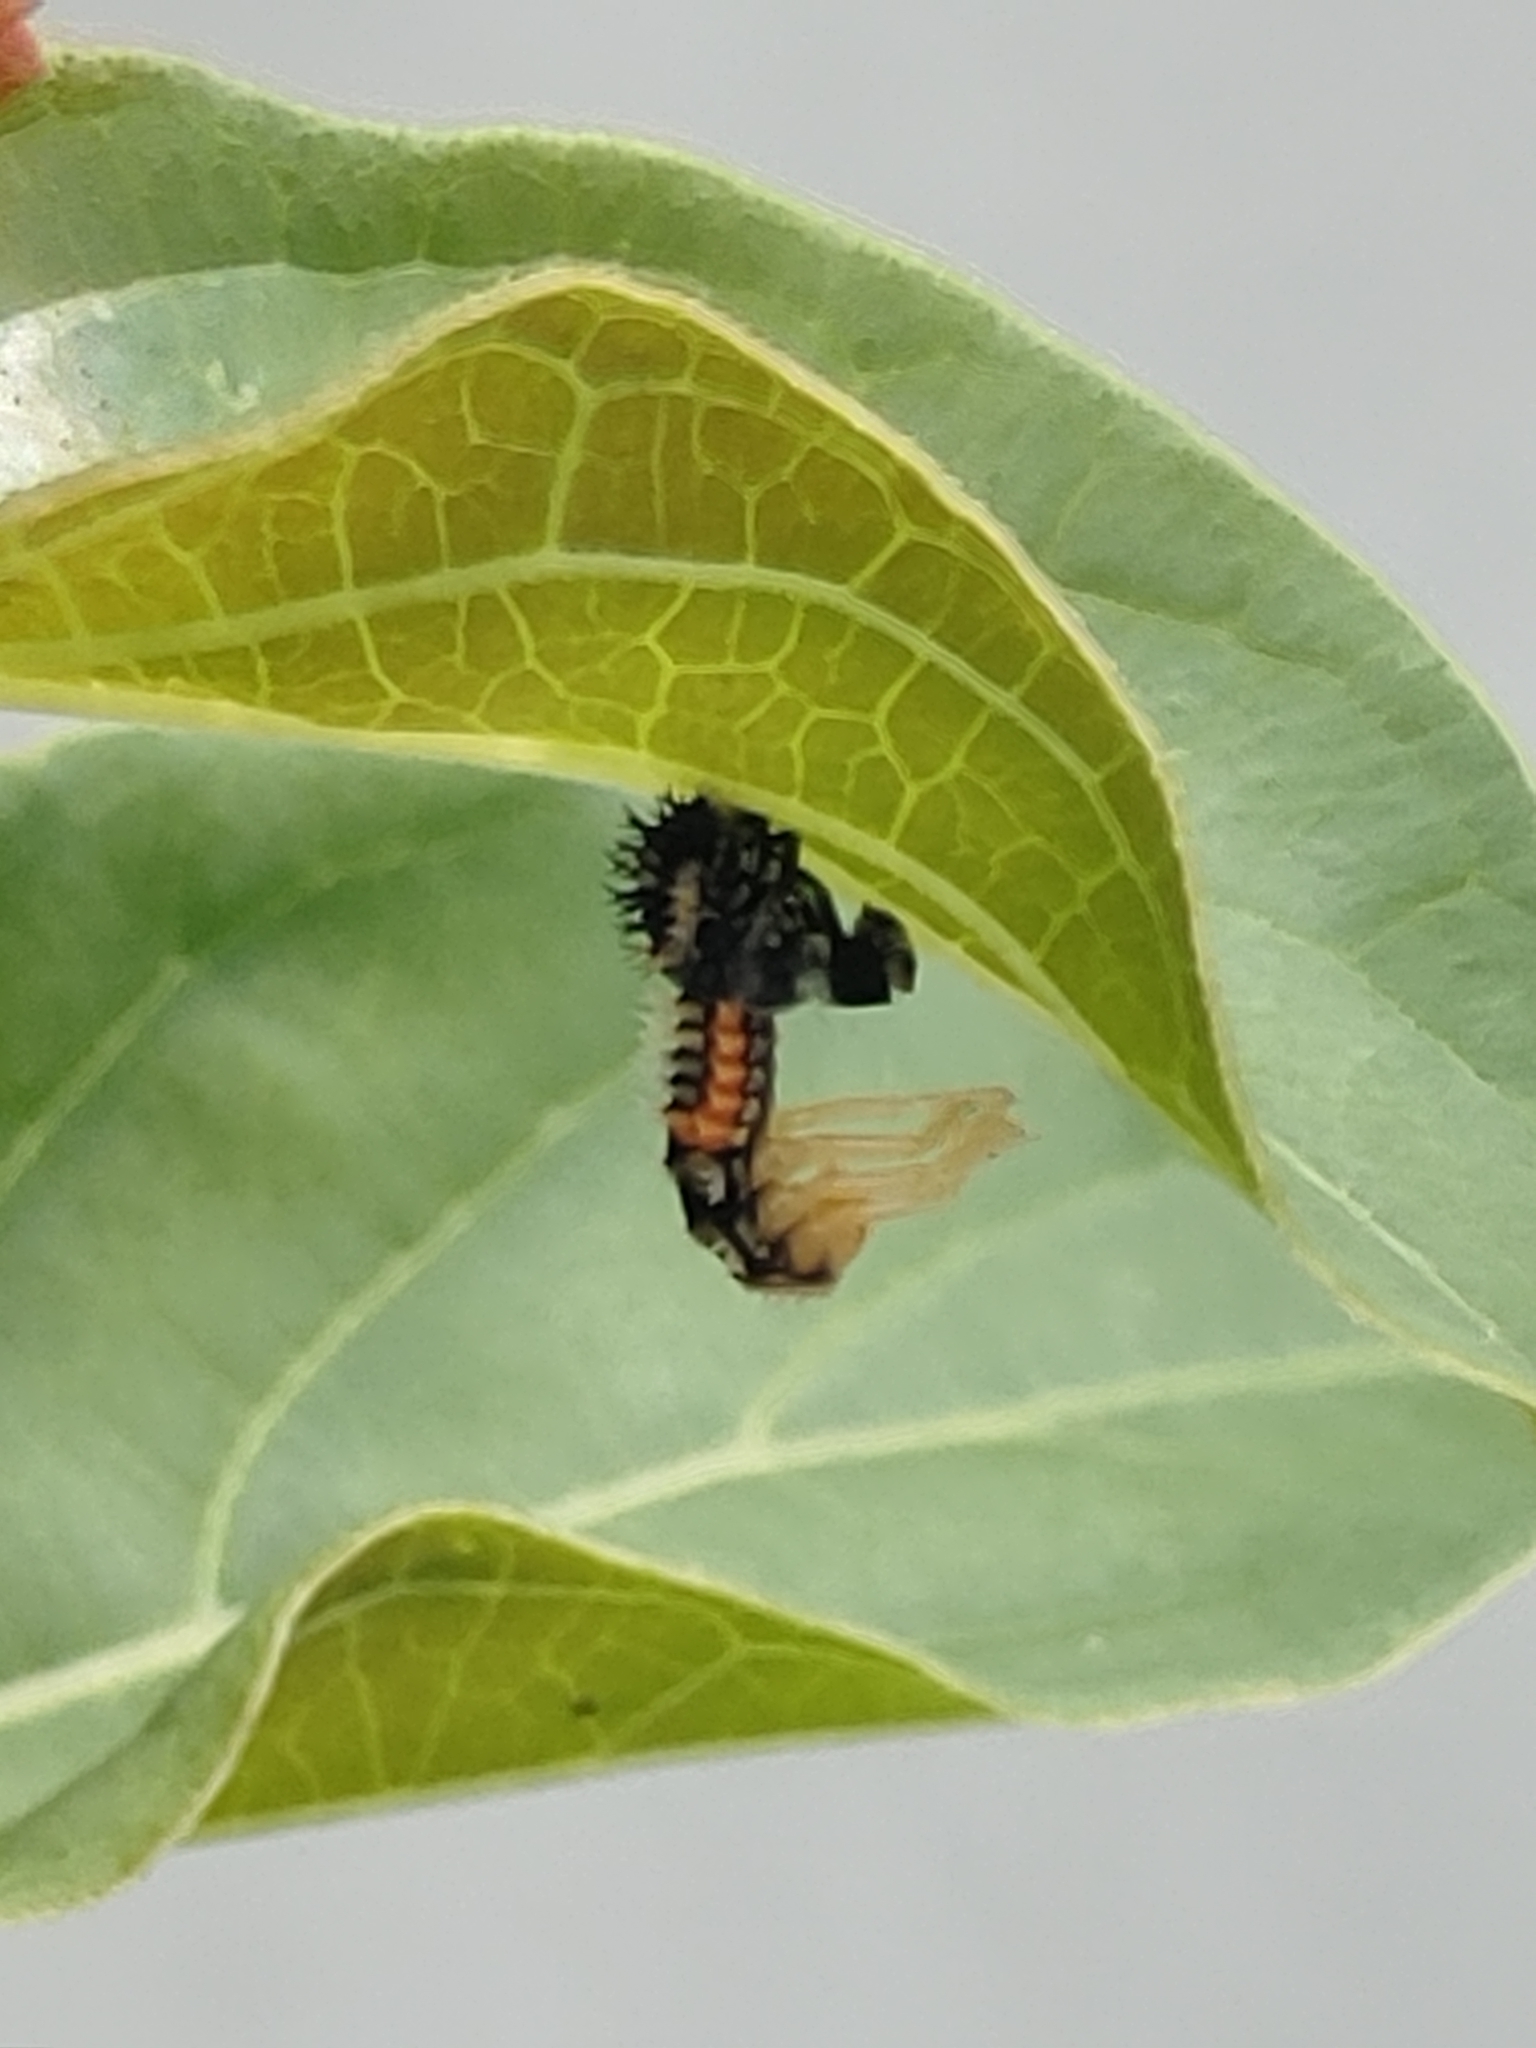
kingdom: Animalia
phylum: Arthropoda
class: Insecta
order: Coleoptera
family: Coccinellidae
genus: Harmonia
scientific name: Harmonia axyridis
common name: Harlequin ladybird
